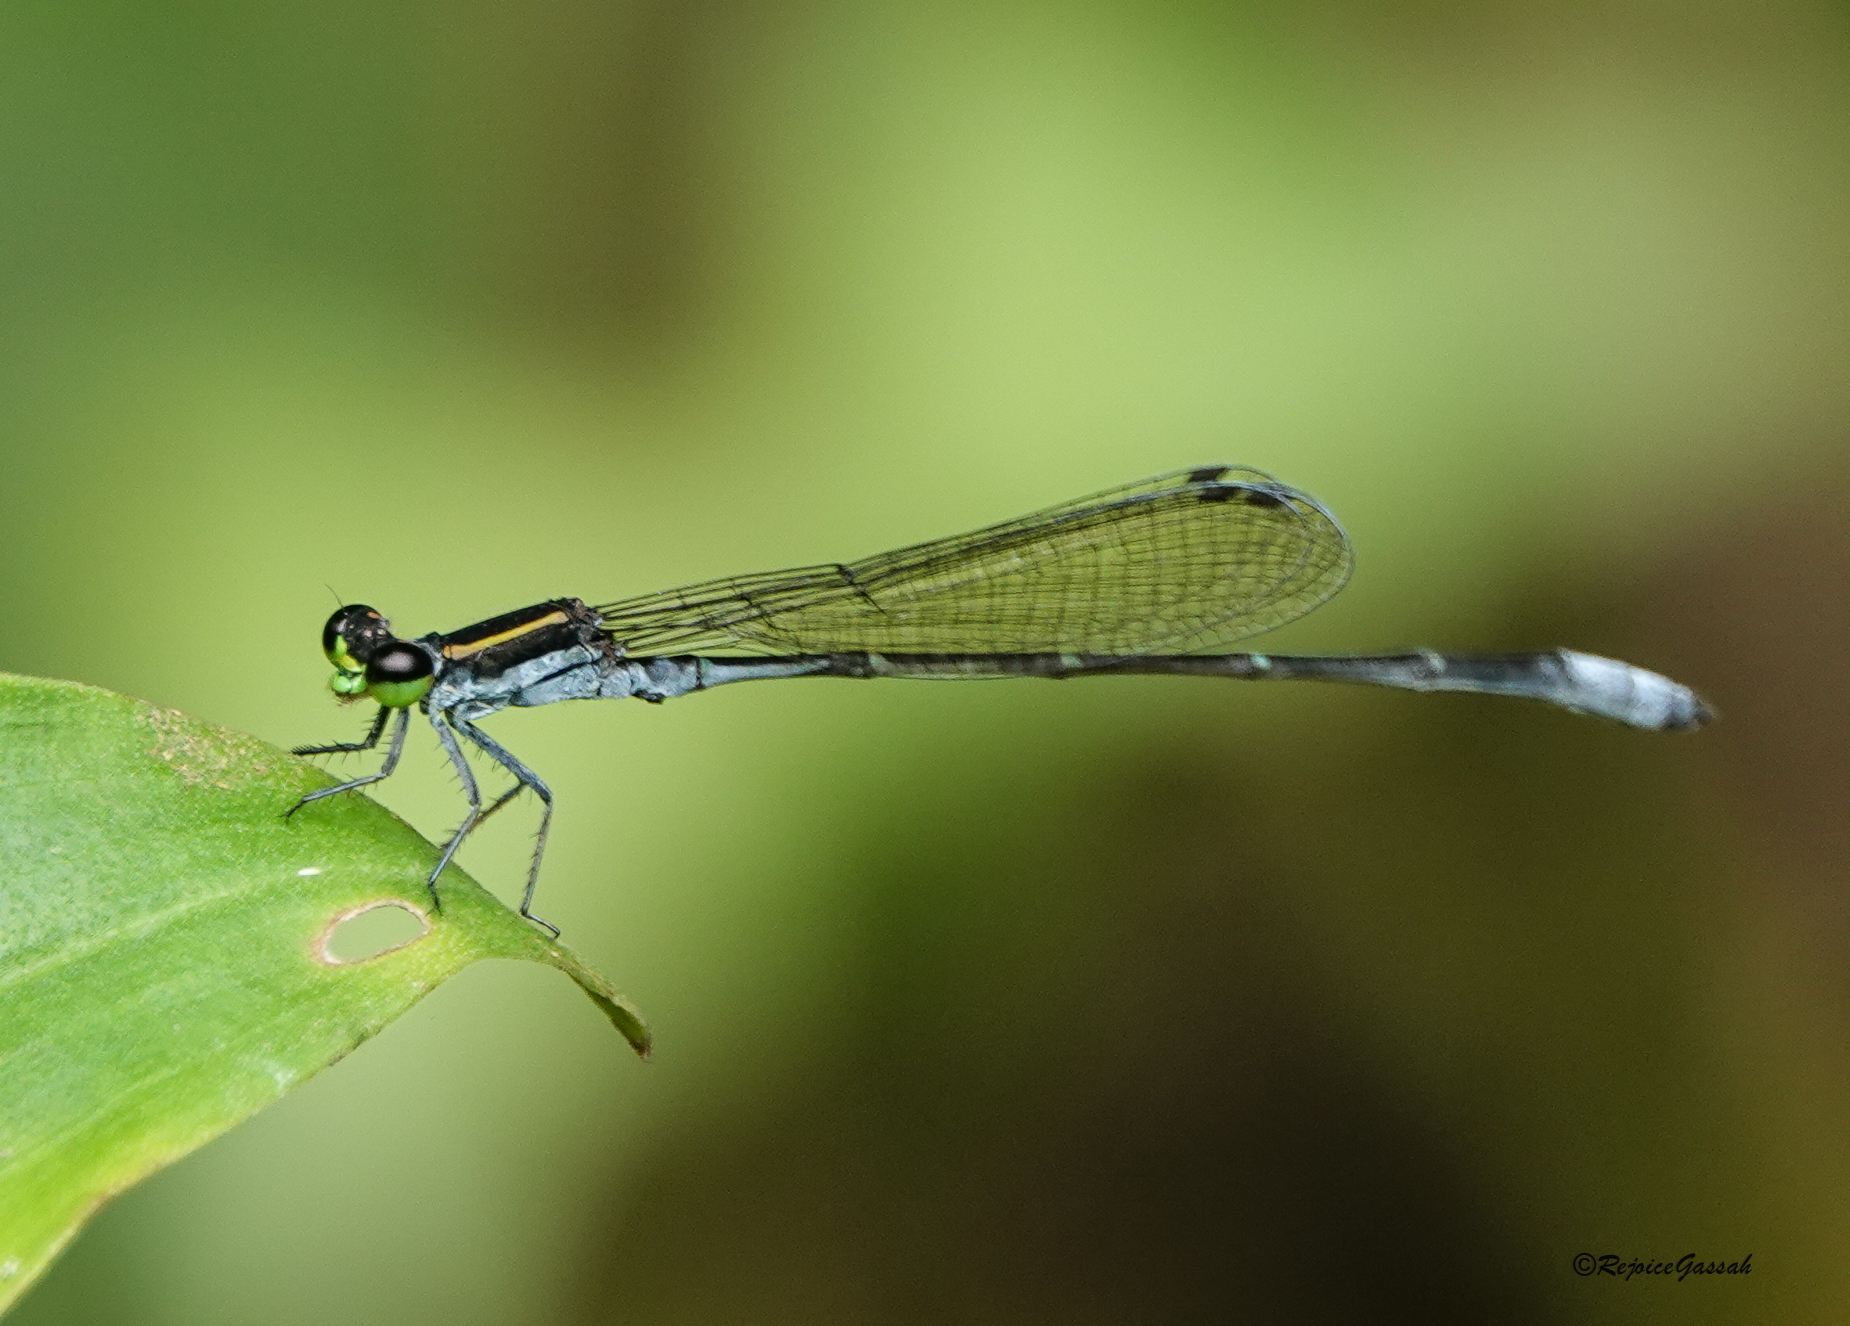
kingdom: Animalia
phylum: Arthropoda
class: Insecta
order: Odonata
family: Coenagrionidae
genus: Argiocnemis
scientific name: Argiocnemis rubescens
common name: Red-tipped shadefly
